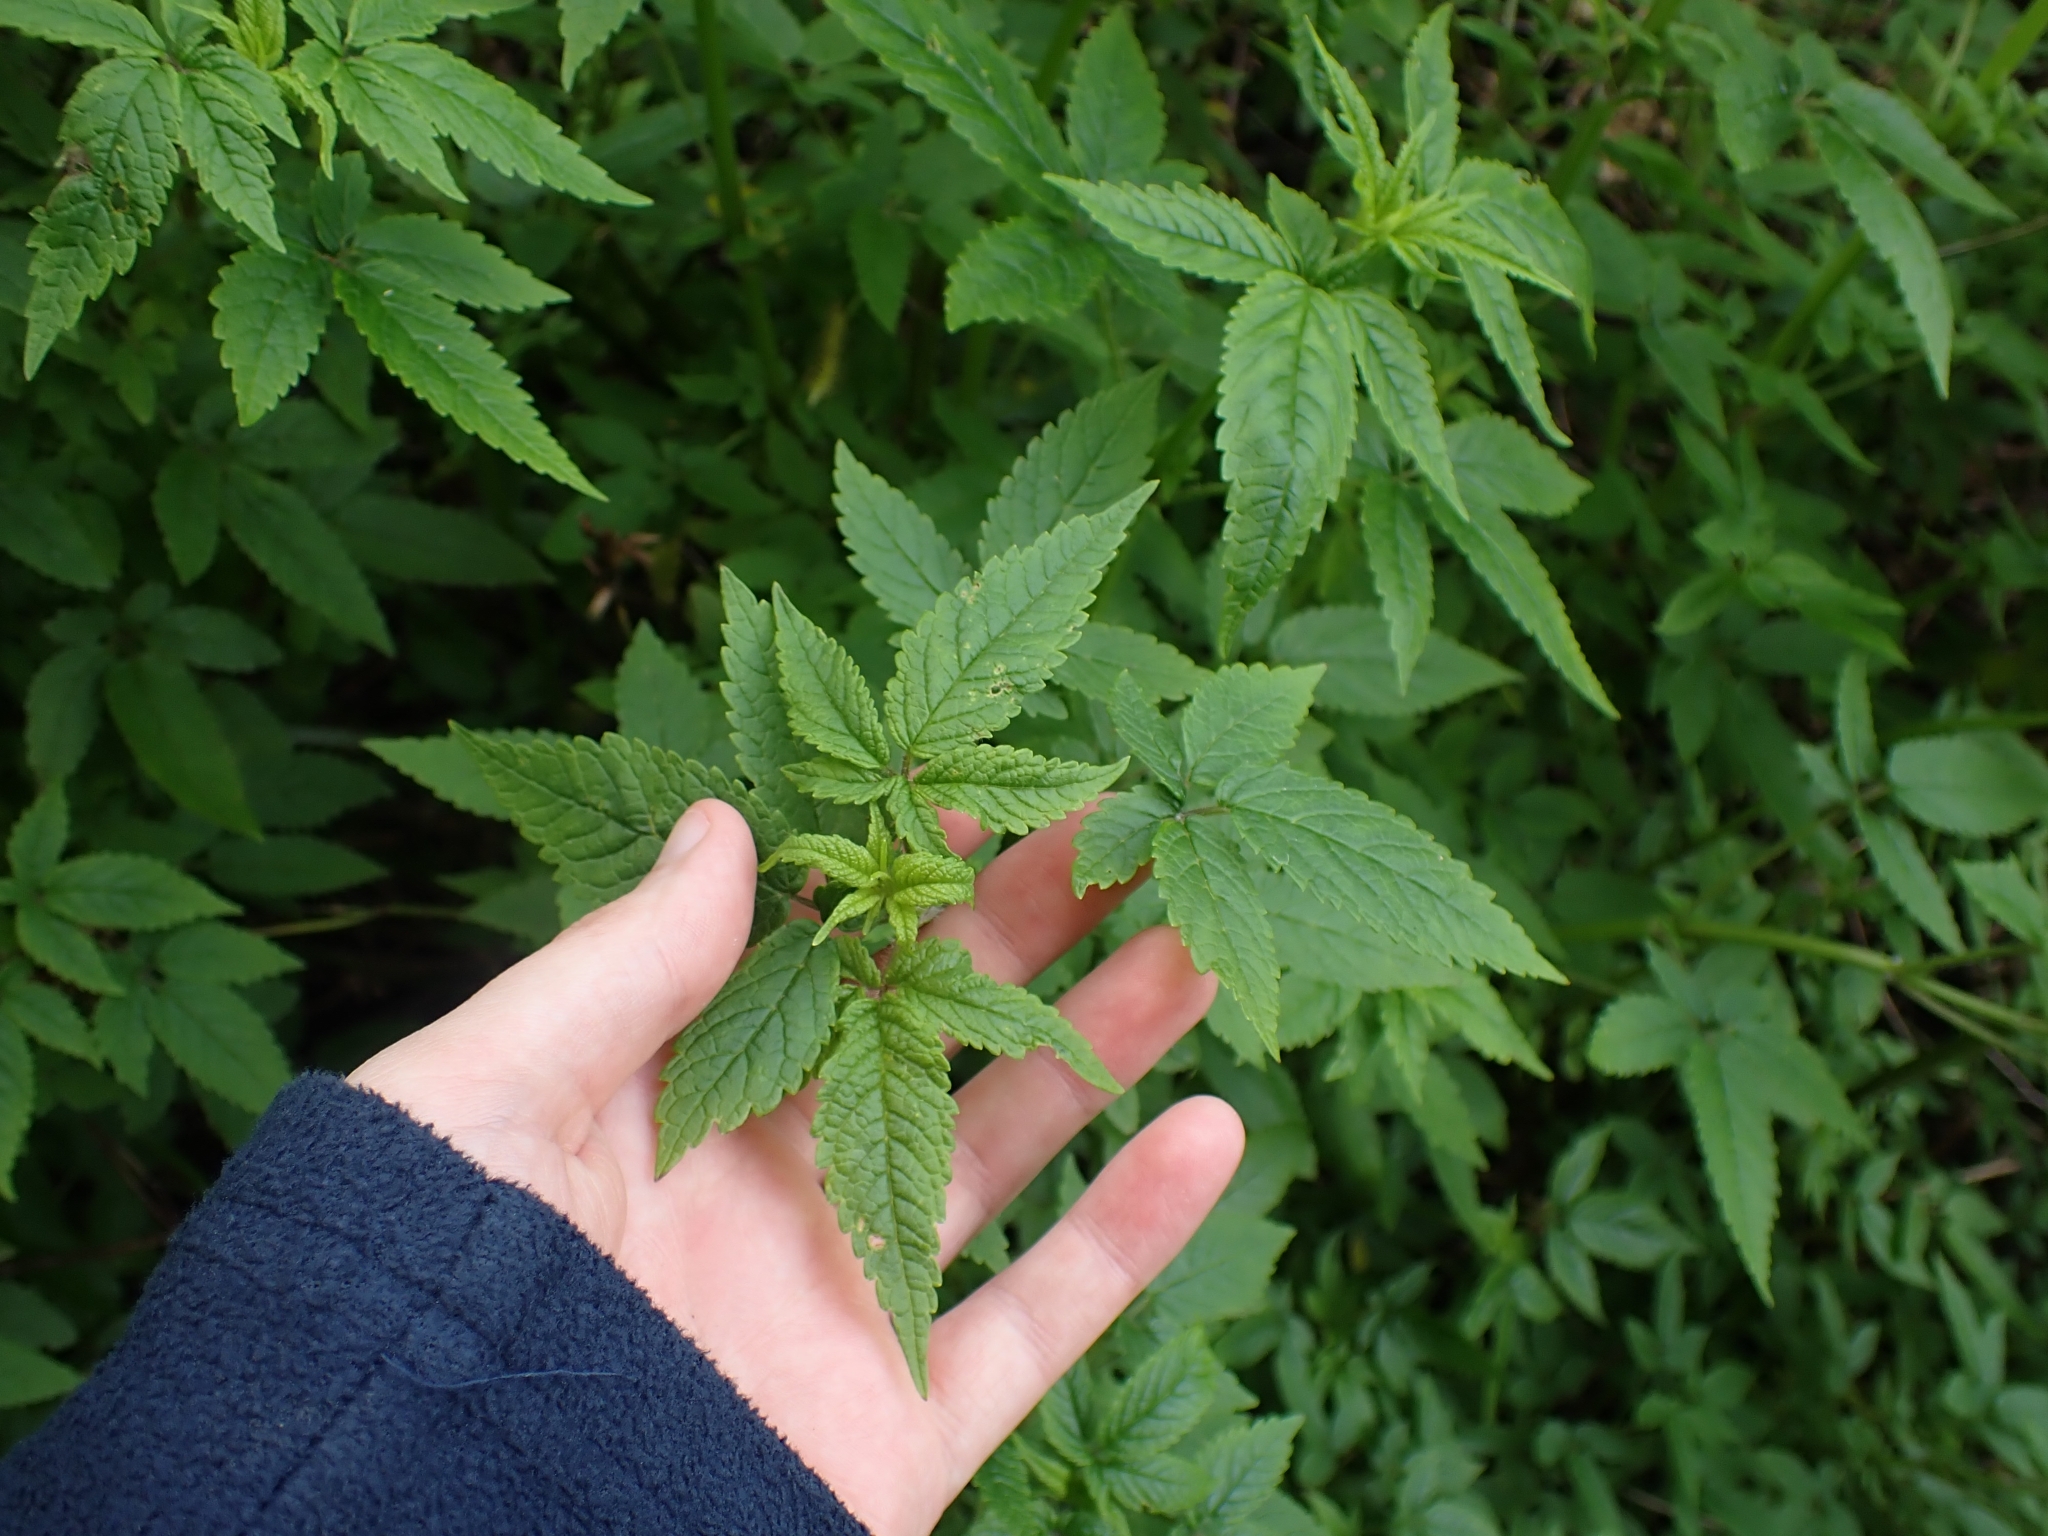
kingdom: Plantae
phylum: Tracheophyta
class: Magnoliopsida
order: Lamiales
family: Lamiaceae
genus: Cedronella
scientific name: Cedronella canariensis
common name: Canary islands balm
